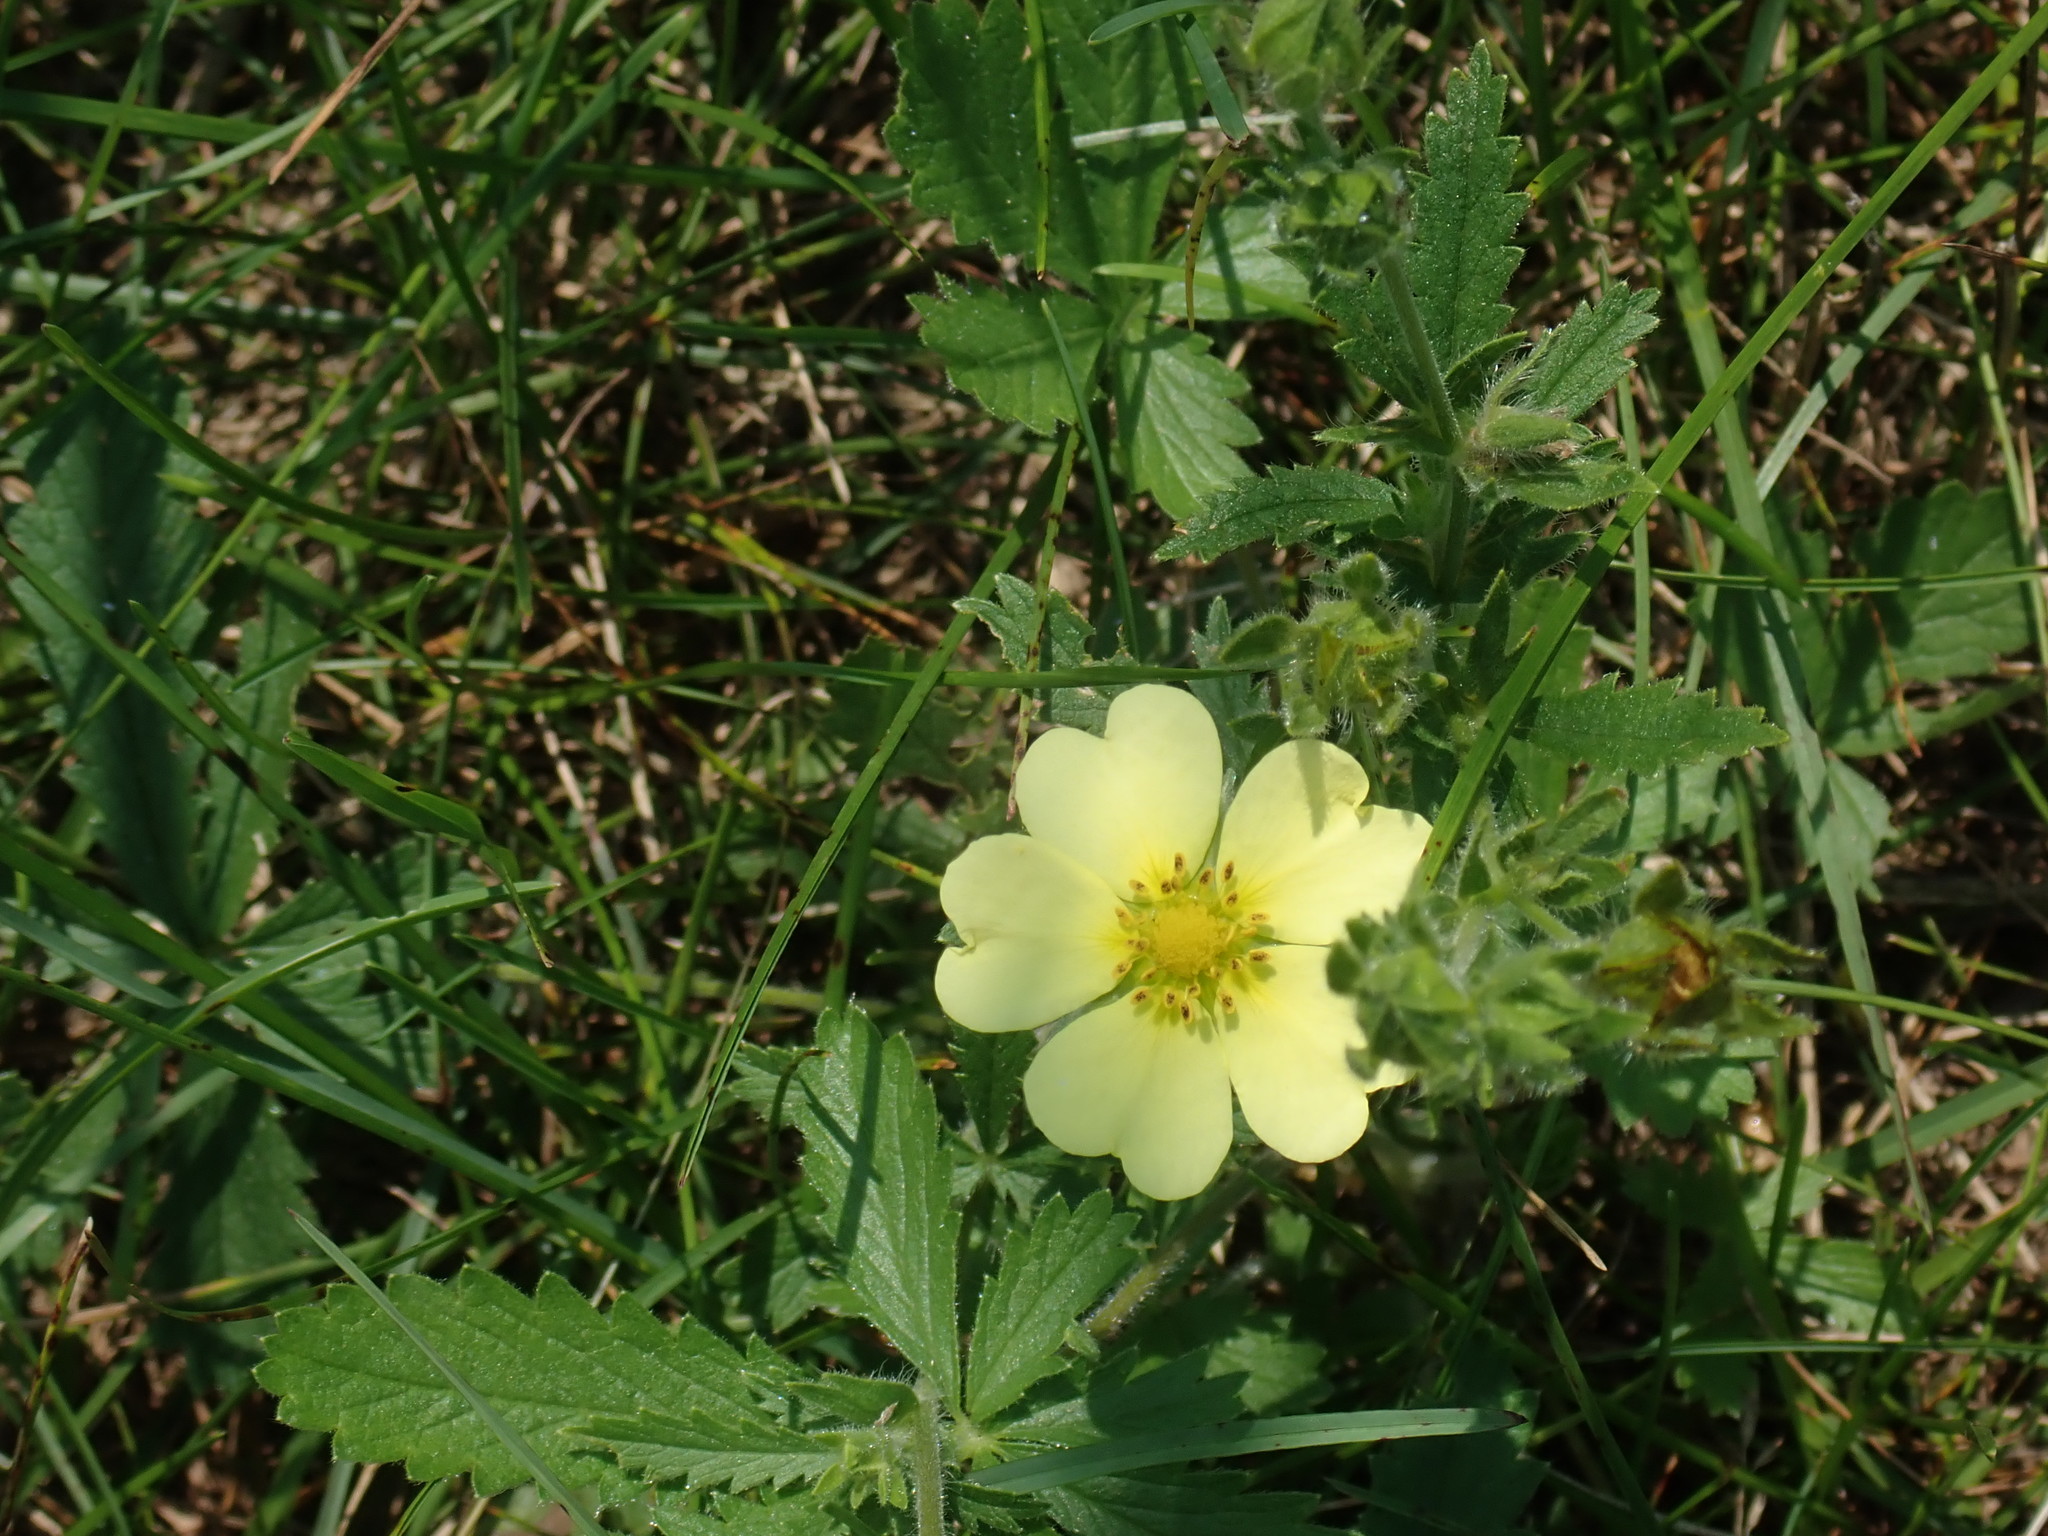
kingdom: Plantae
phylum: Tracheophyta
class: Magnoliopsida
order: Rosales
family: Rosaceae
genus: Potentilla
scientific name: Potentilla recta
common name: Sulphur cinquefoil
